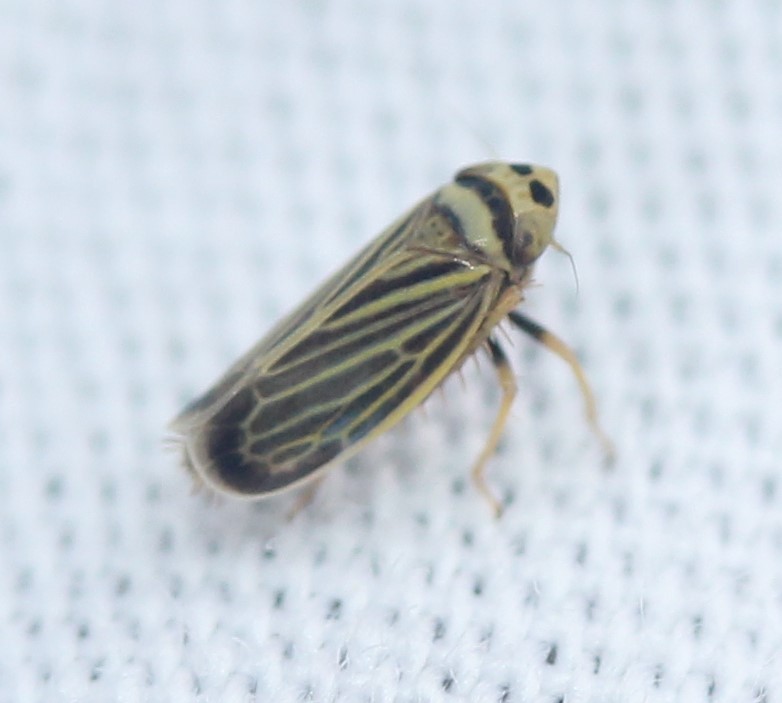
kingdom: Animalia
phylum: Arthropoda
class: Insecta
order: Hemiptera
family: Cicadellidae
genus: Amblysellus
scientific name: Amblysellus curtisii
